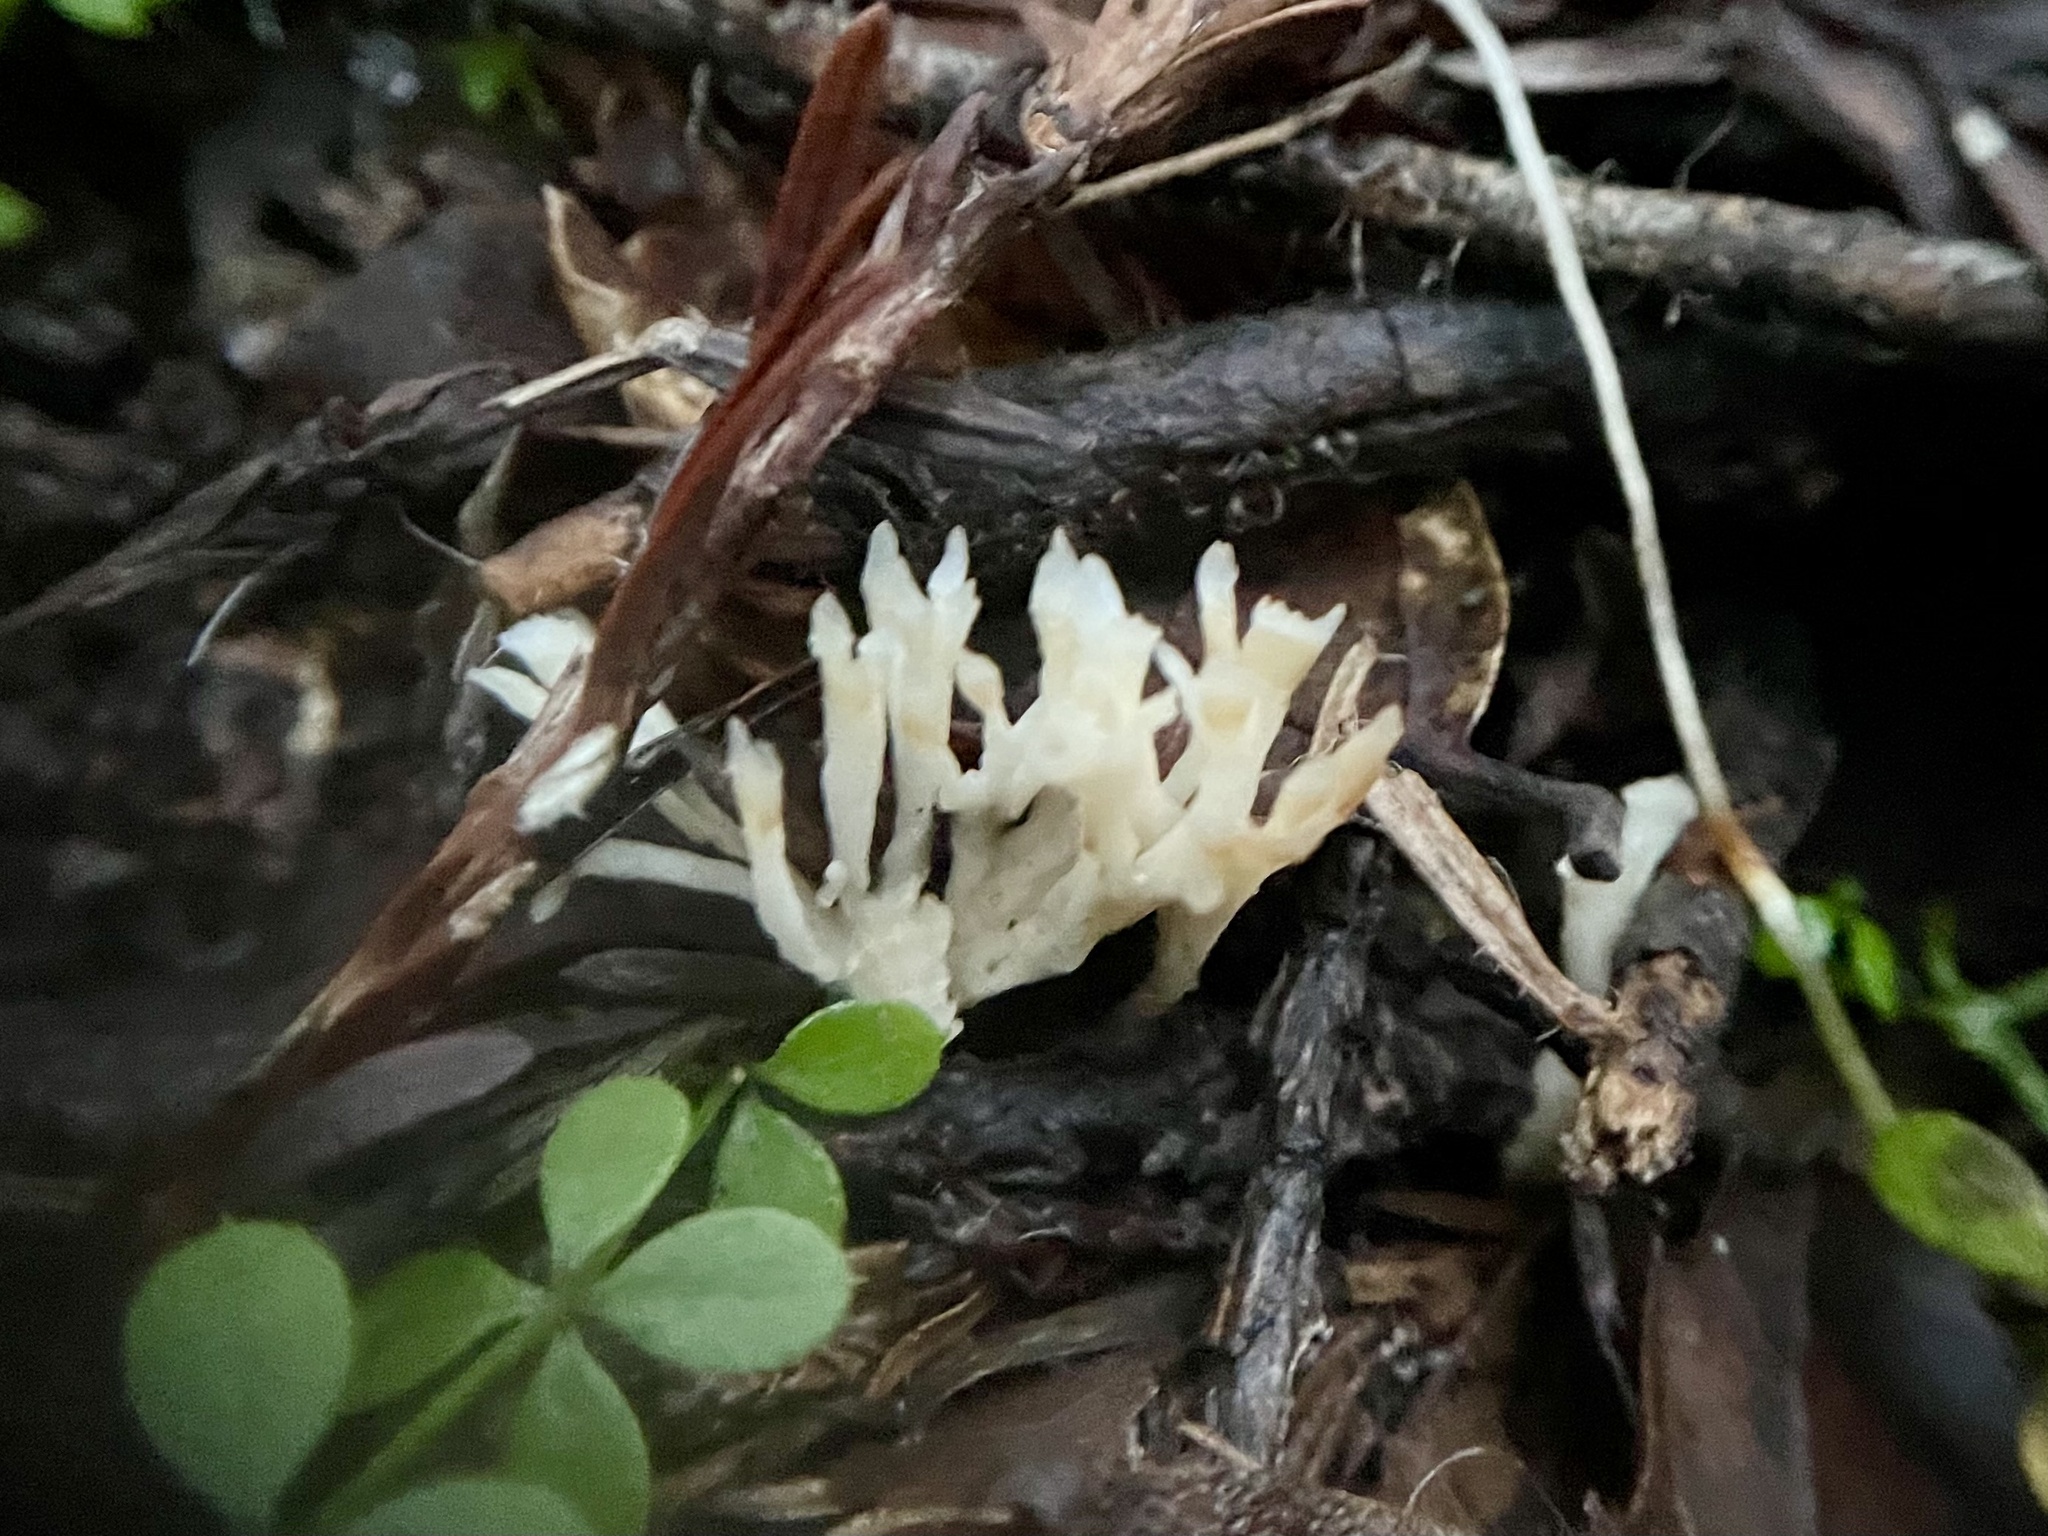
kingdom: Fungi
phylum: Basidiomycota
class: Agaricomycetes
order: Tremellodendropsidales
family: Tremellodendropsidaceae
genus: Tremellodendropsis
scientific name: Tremellodendropsis tuberosa
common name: Ashen coral
